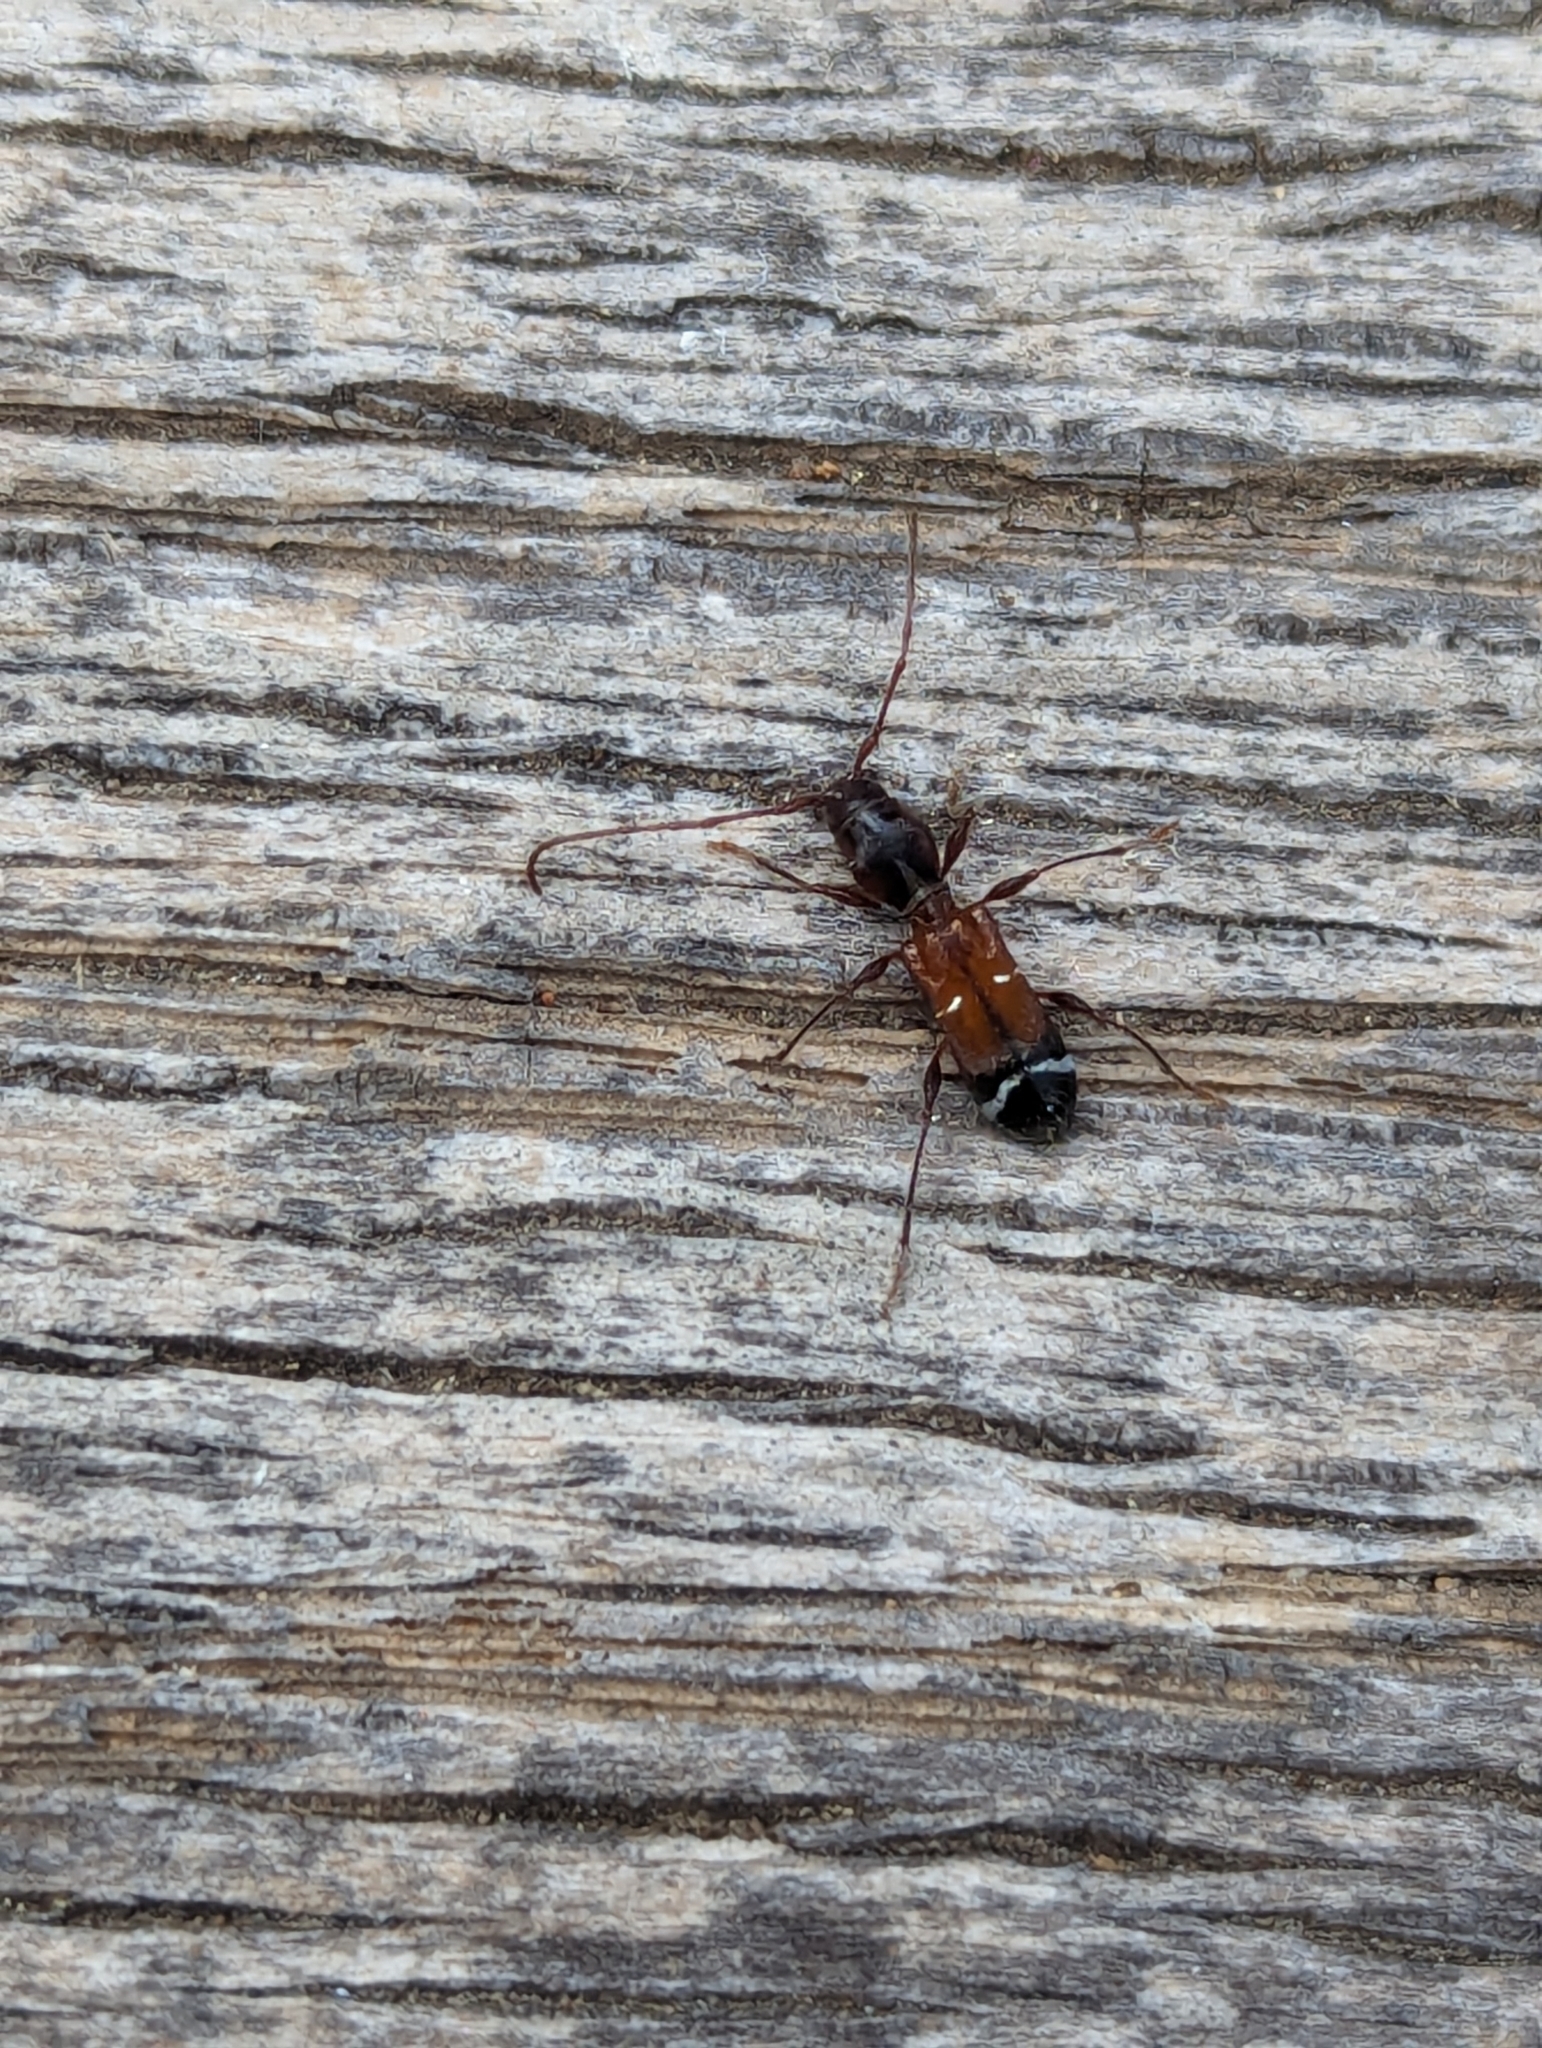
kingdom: Animalia
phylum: Arthropoda
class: Insecta
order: Coleoptera
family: Cerambycidae
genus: Euderces
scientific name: Euderces pini
